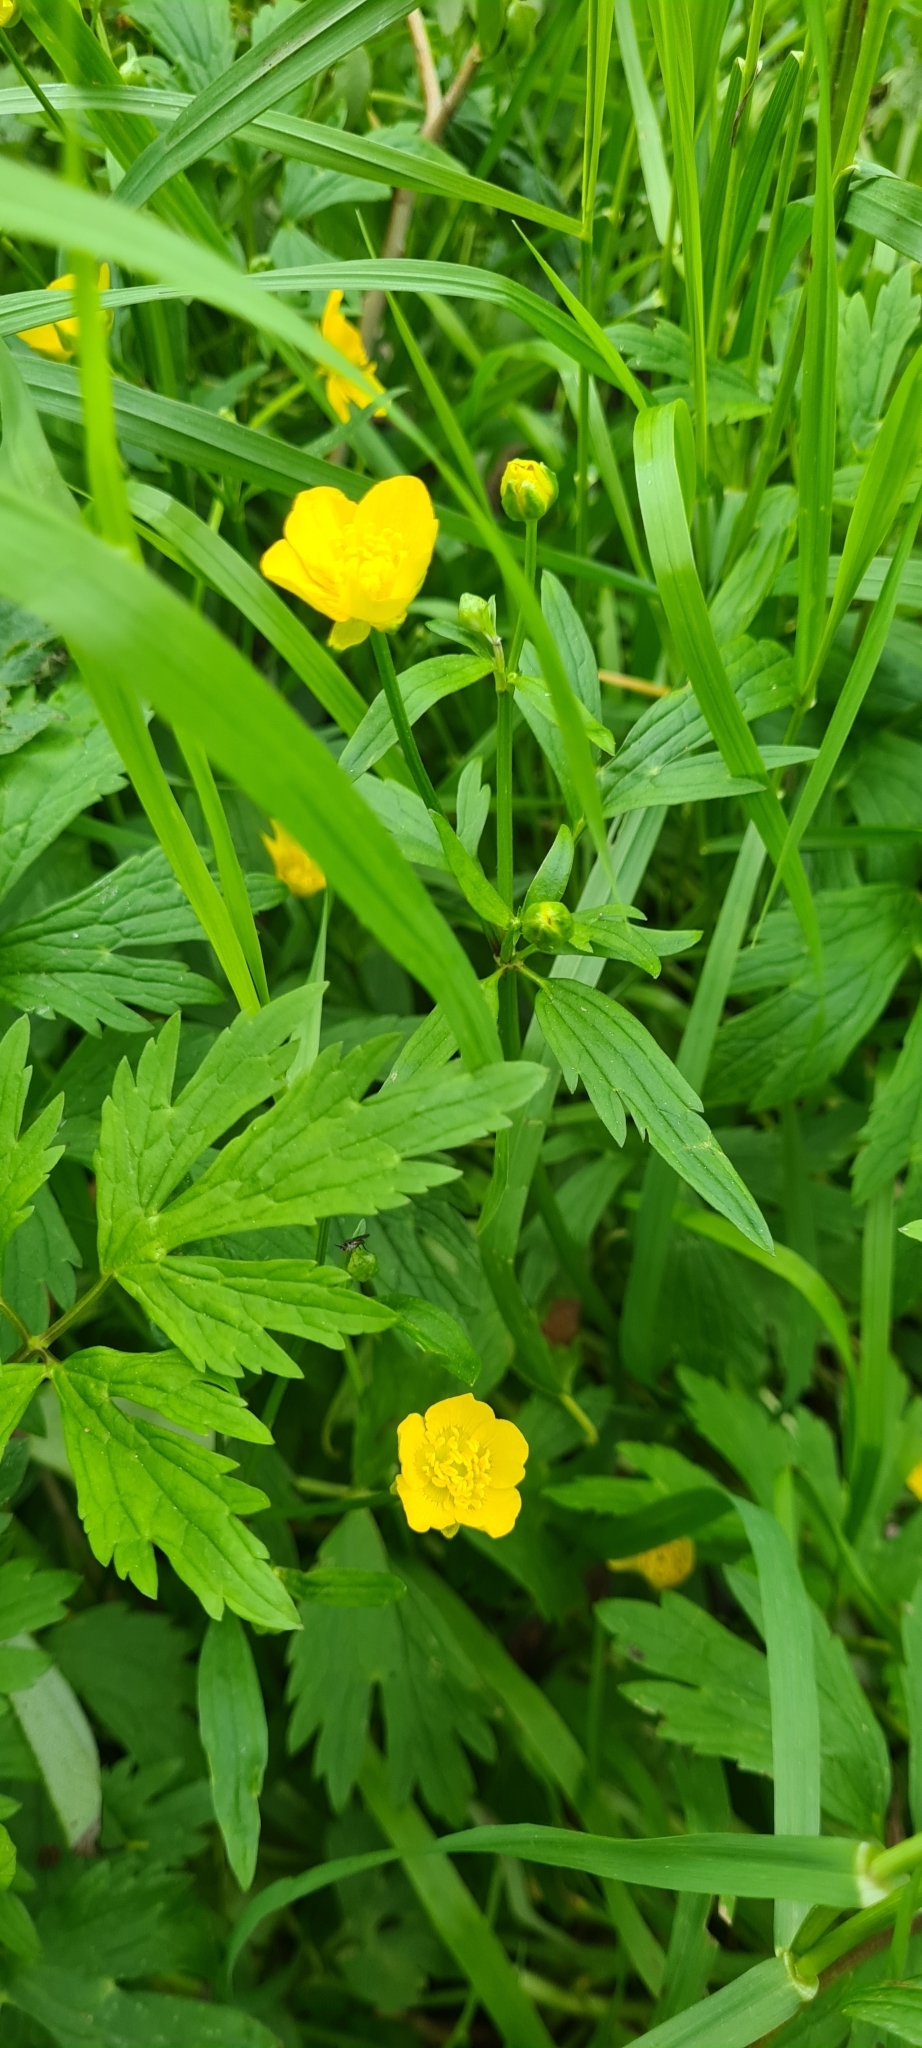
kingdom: Plantae
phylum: Tracheophyta
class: Magnoliopsida
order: Ranunculales
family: Ranunculaceae
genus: Ranunculus
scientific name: Ranunculus repens
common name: Creeping buttercup
